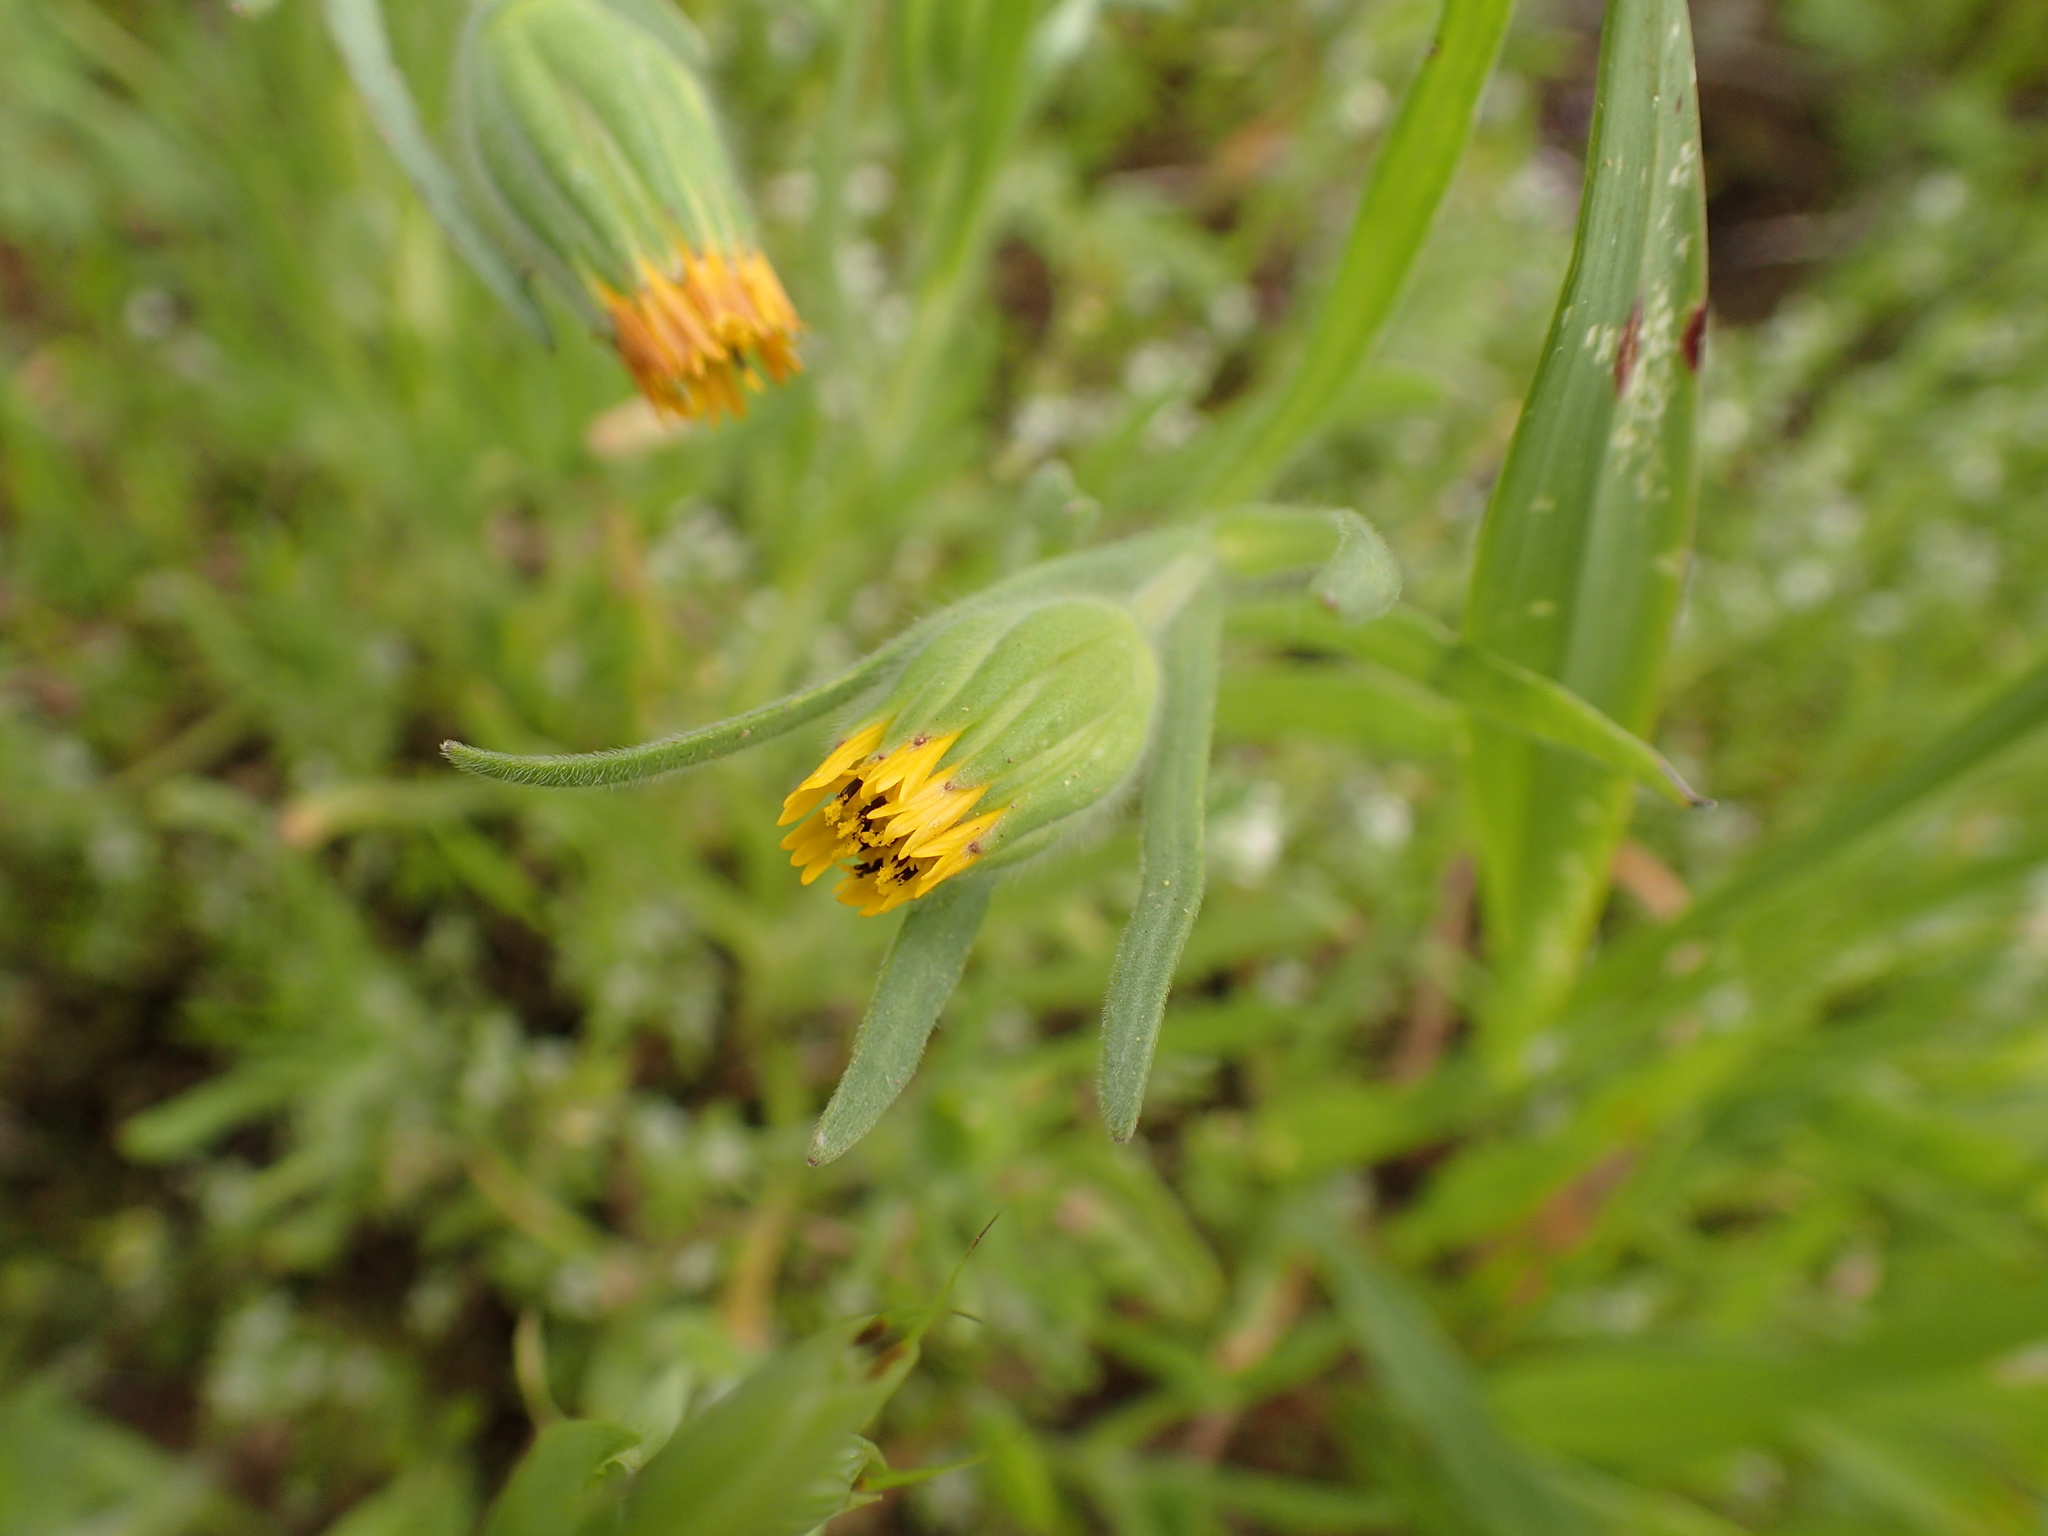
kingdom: Plantae
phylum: Tracheophyta
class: Magnoliopsida
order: Asterales
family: Asteraceae
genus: Achyrachaena
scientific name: Achyrachaena mollis
